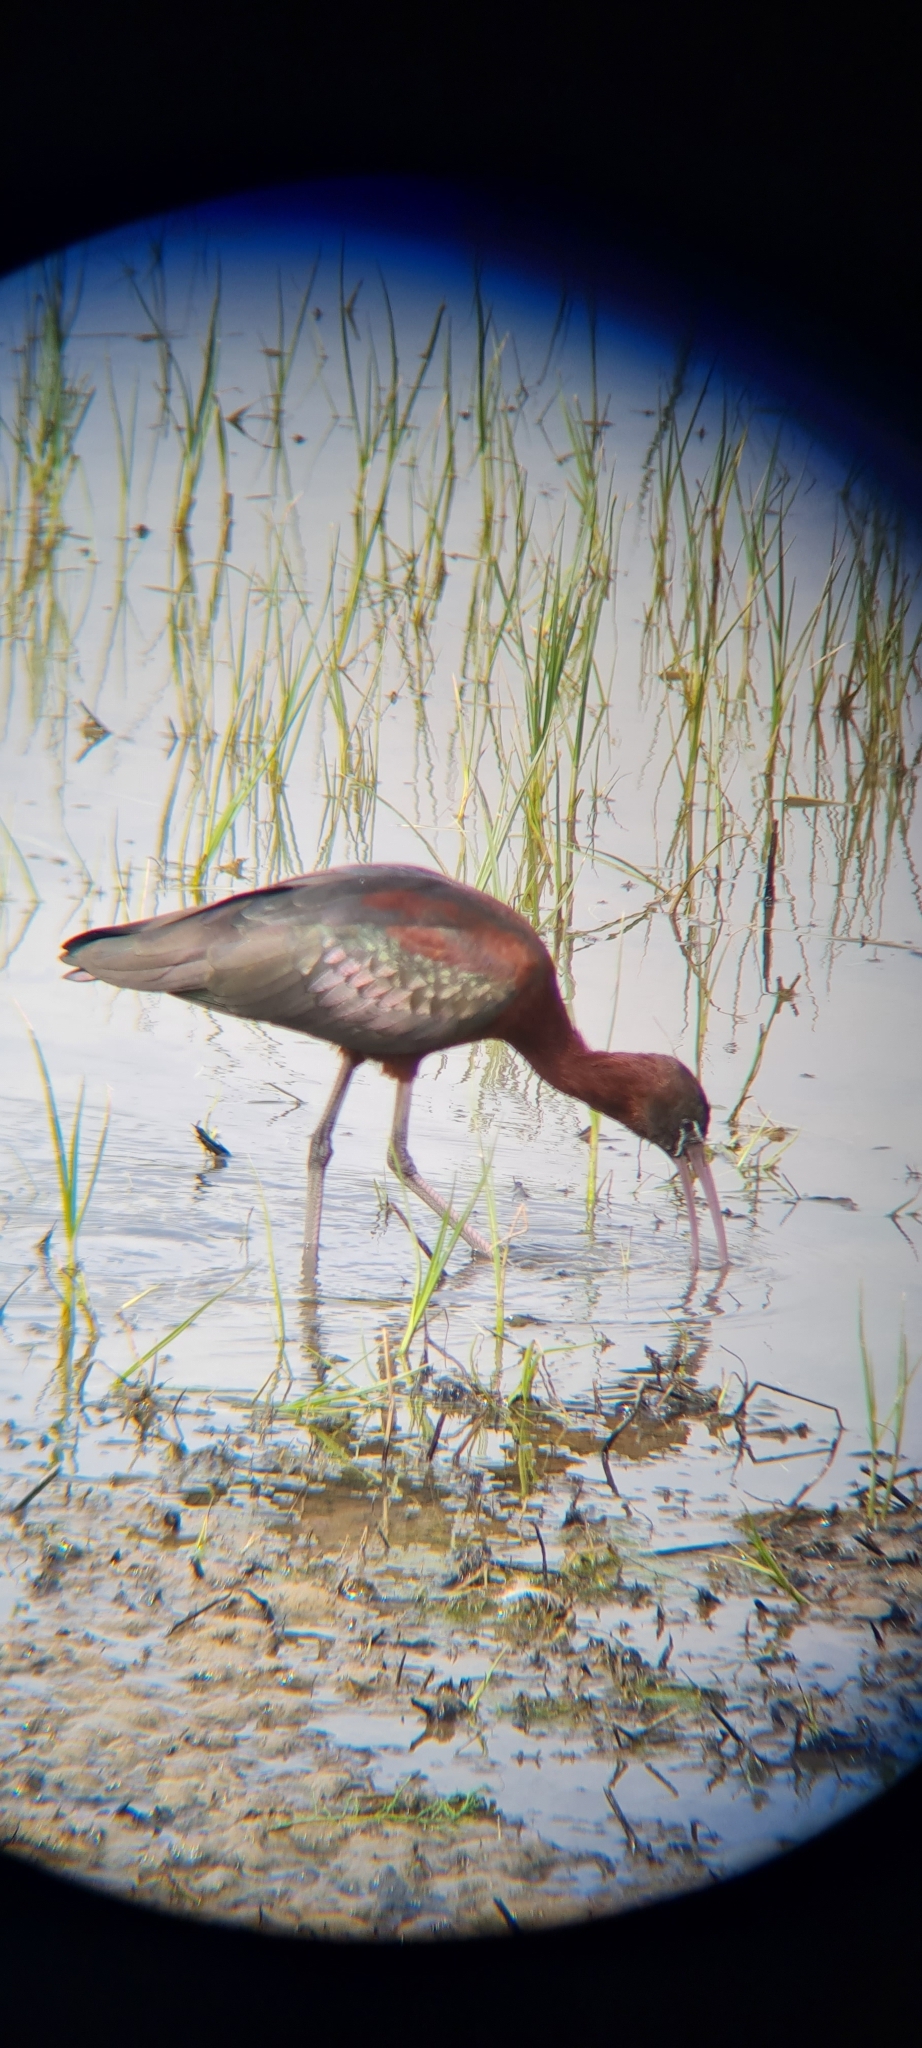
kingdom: Animalia
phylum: Chordata
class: Aves
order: Pelecaniformes
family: Threskiornithidae
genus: Plegadis
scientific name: Plegadis falcinellus
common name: Glossy ibis
